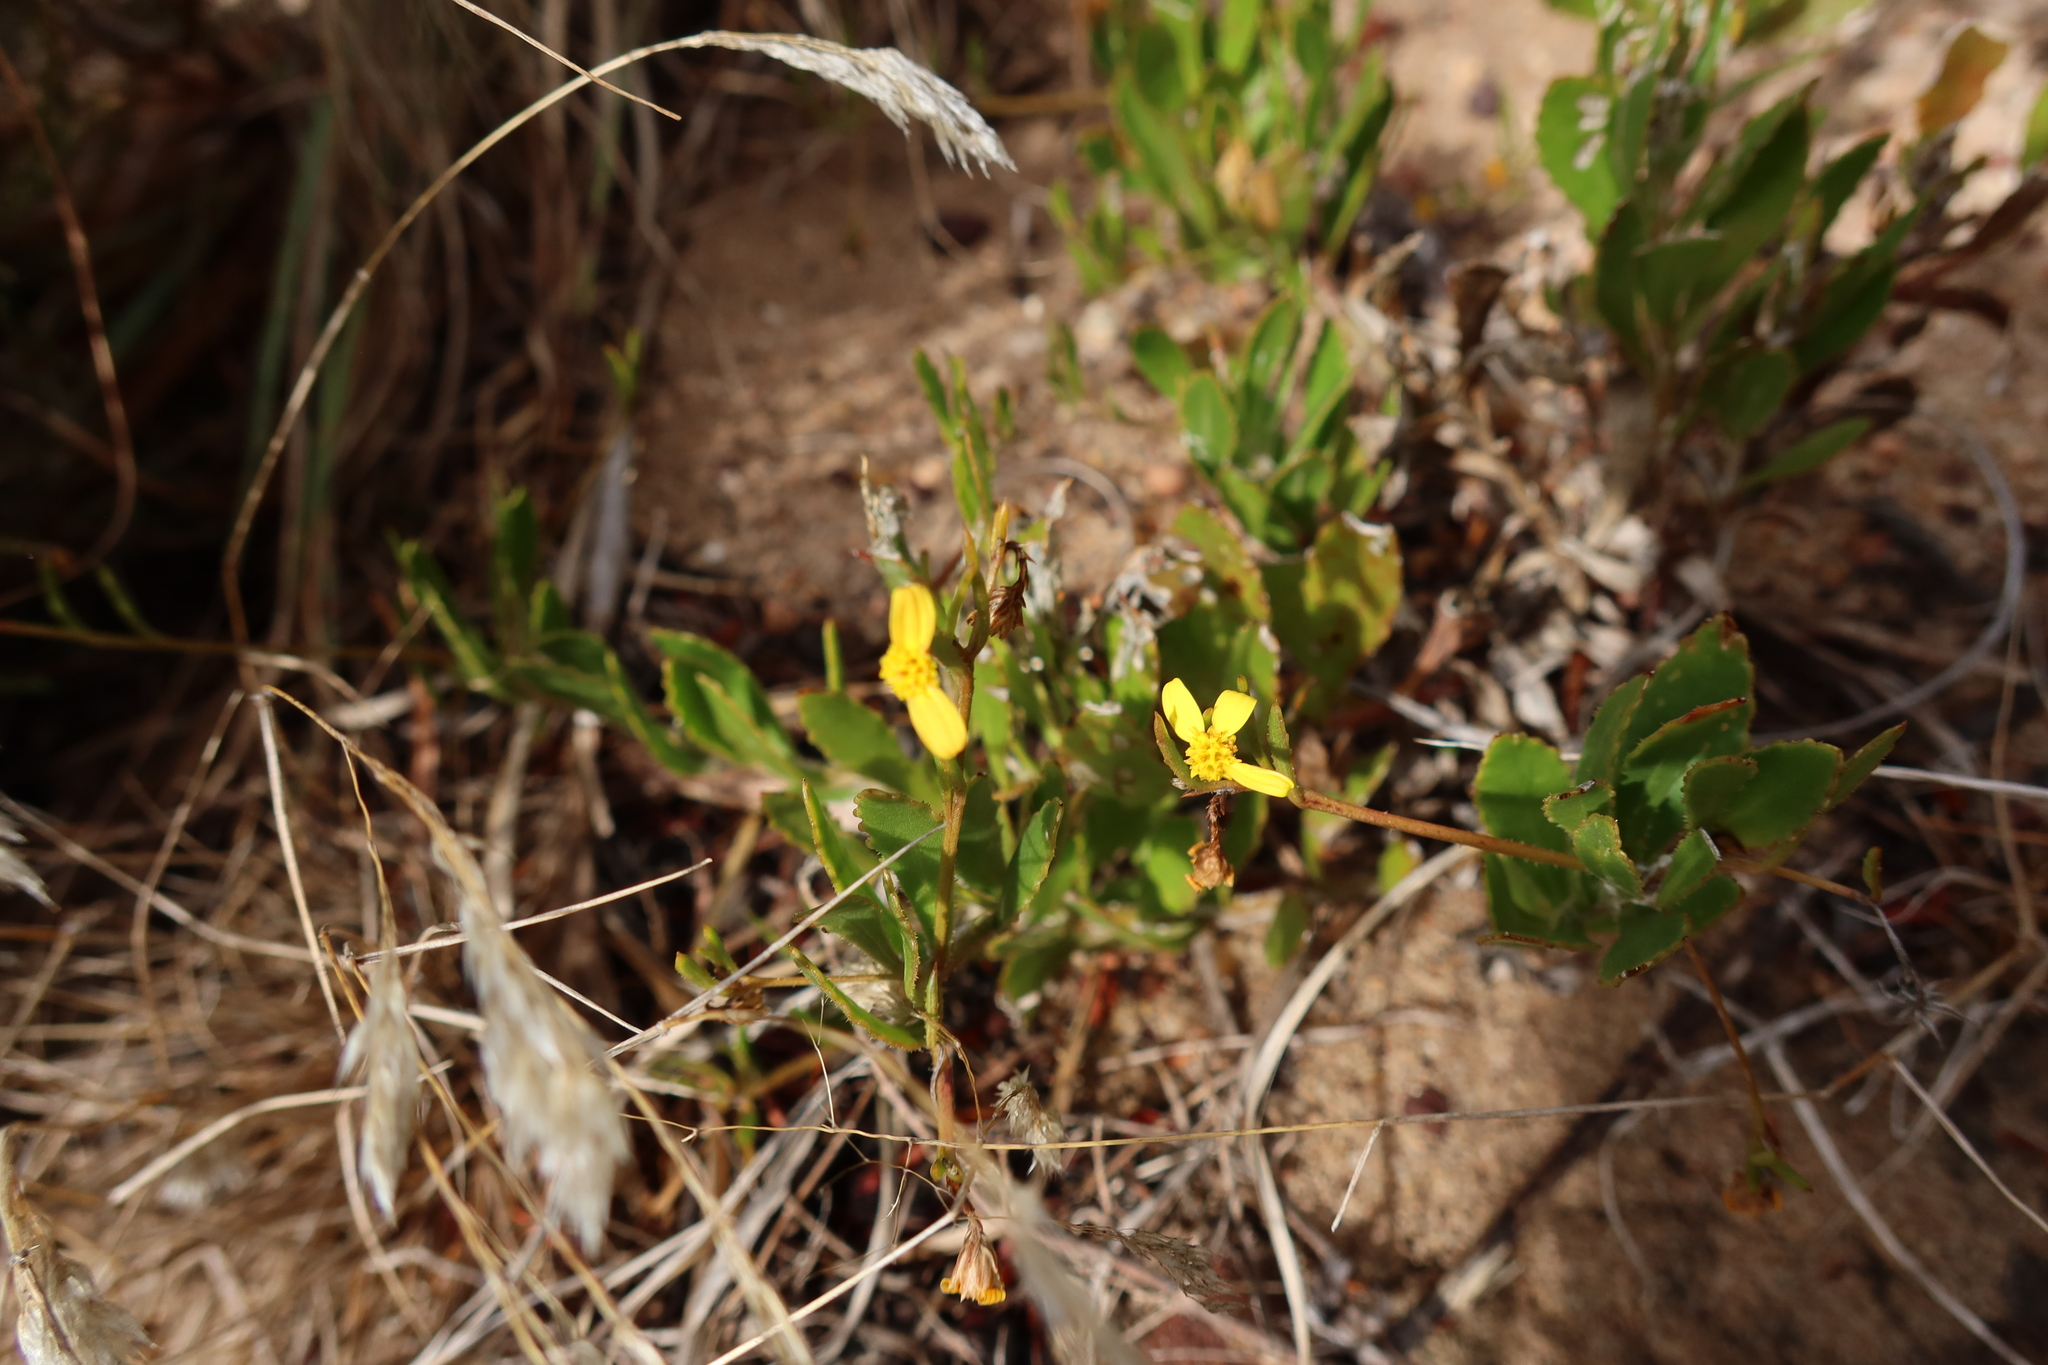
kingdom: Plantae
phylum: Tracheophyta
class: Magnoliopsida
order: Asterales
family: Asteraceae
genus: Osteospermum
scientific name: Osteospermum ciliatum
